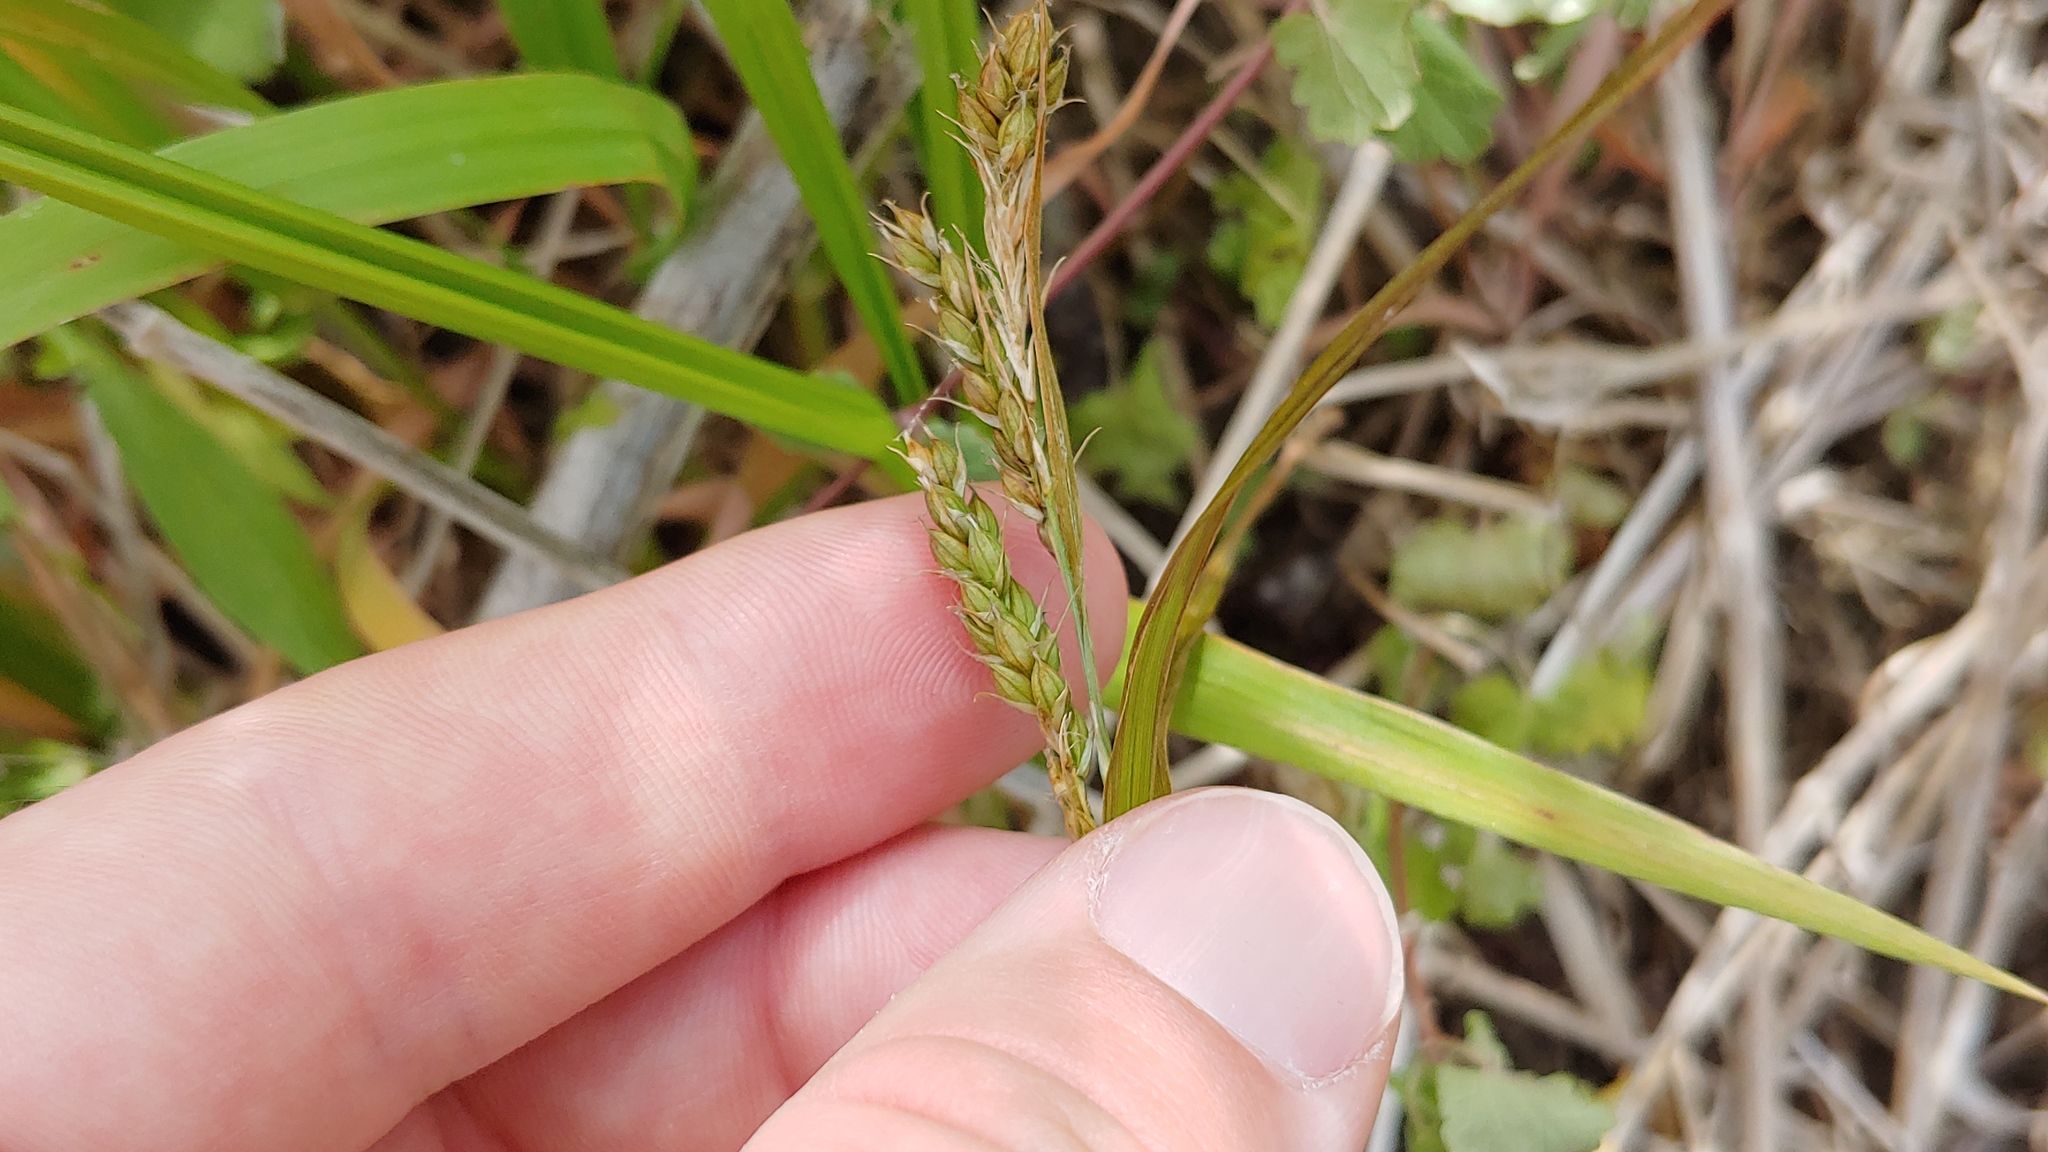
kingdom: Plantae
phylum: Tracheophyta
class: Liliopsida
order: Poales
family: Cyperaceae
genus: Carex
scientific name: Carex davisii
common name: Davis' sedge
